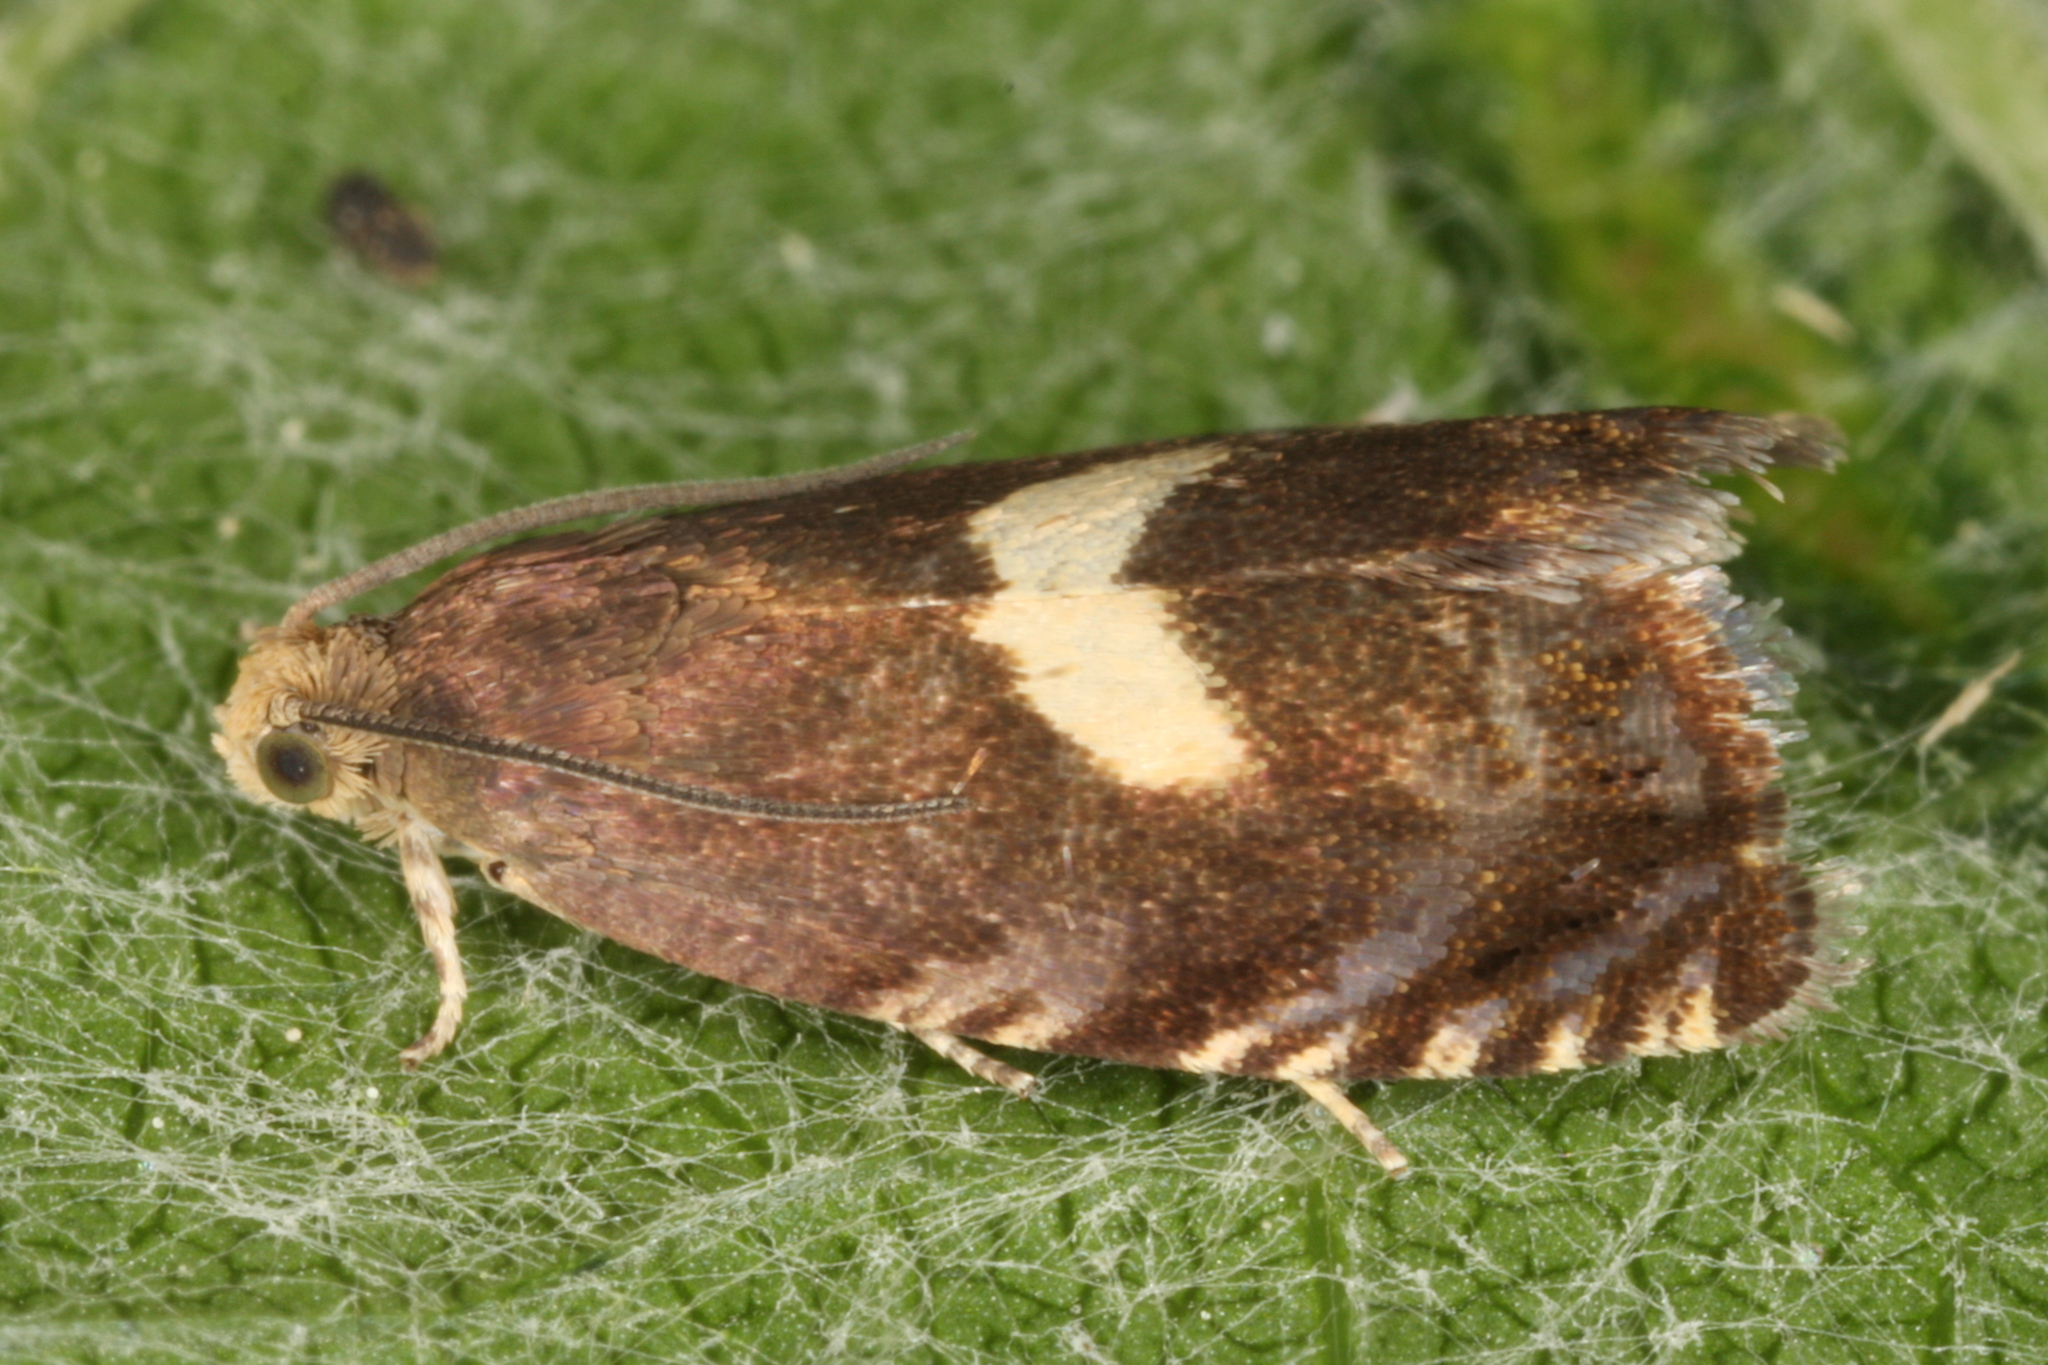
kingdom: Animalia
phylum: Arthropoda
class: Insecta
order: Lepidoptera
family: Tortricidae
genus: Cydia
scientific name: Cydia inquinatana
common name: Scarce maple piercer
